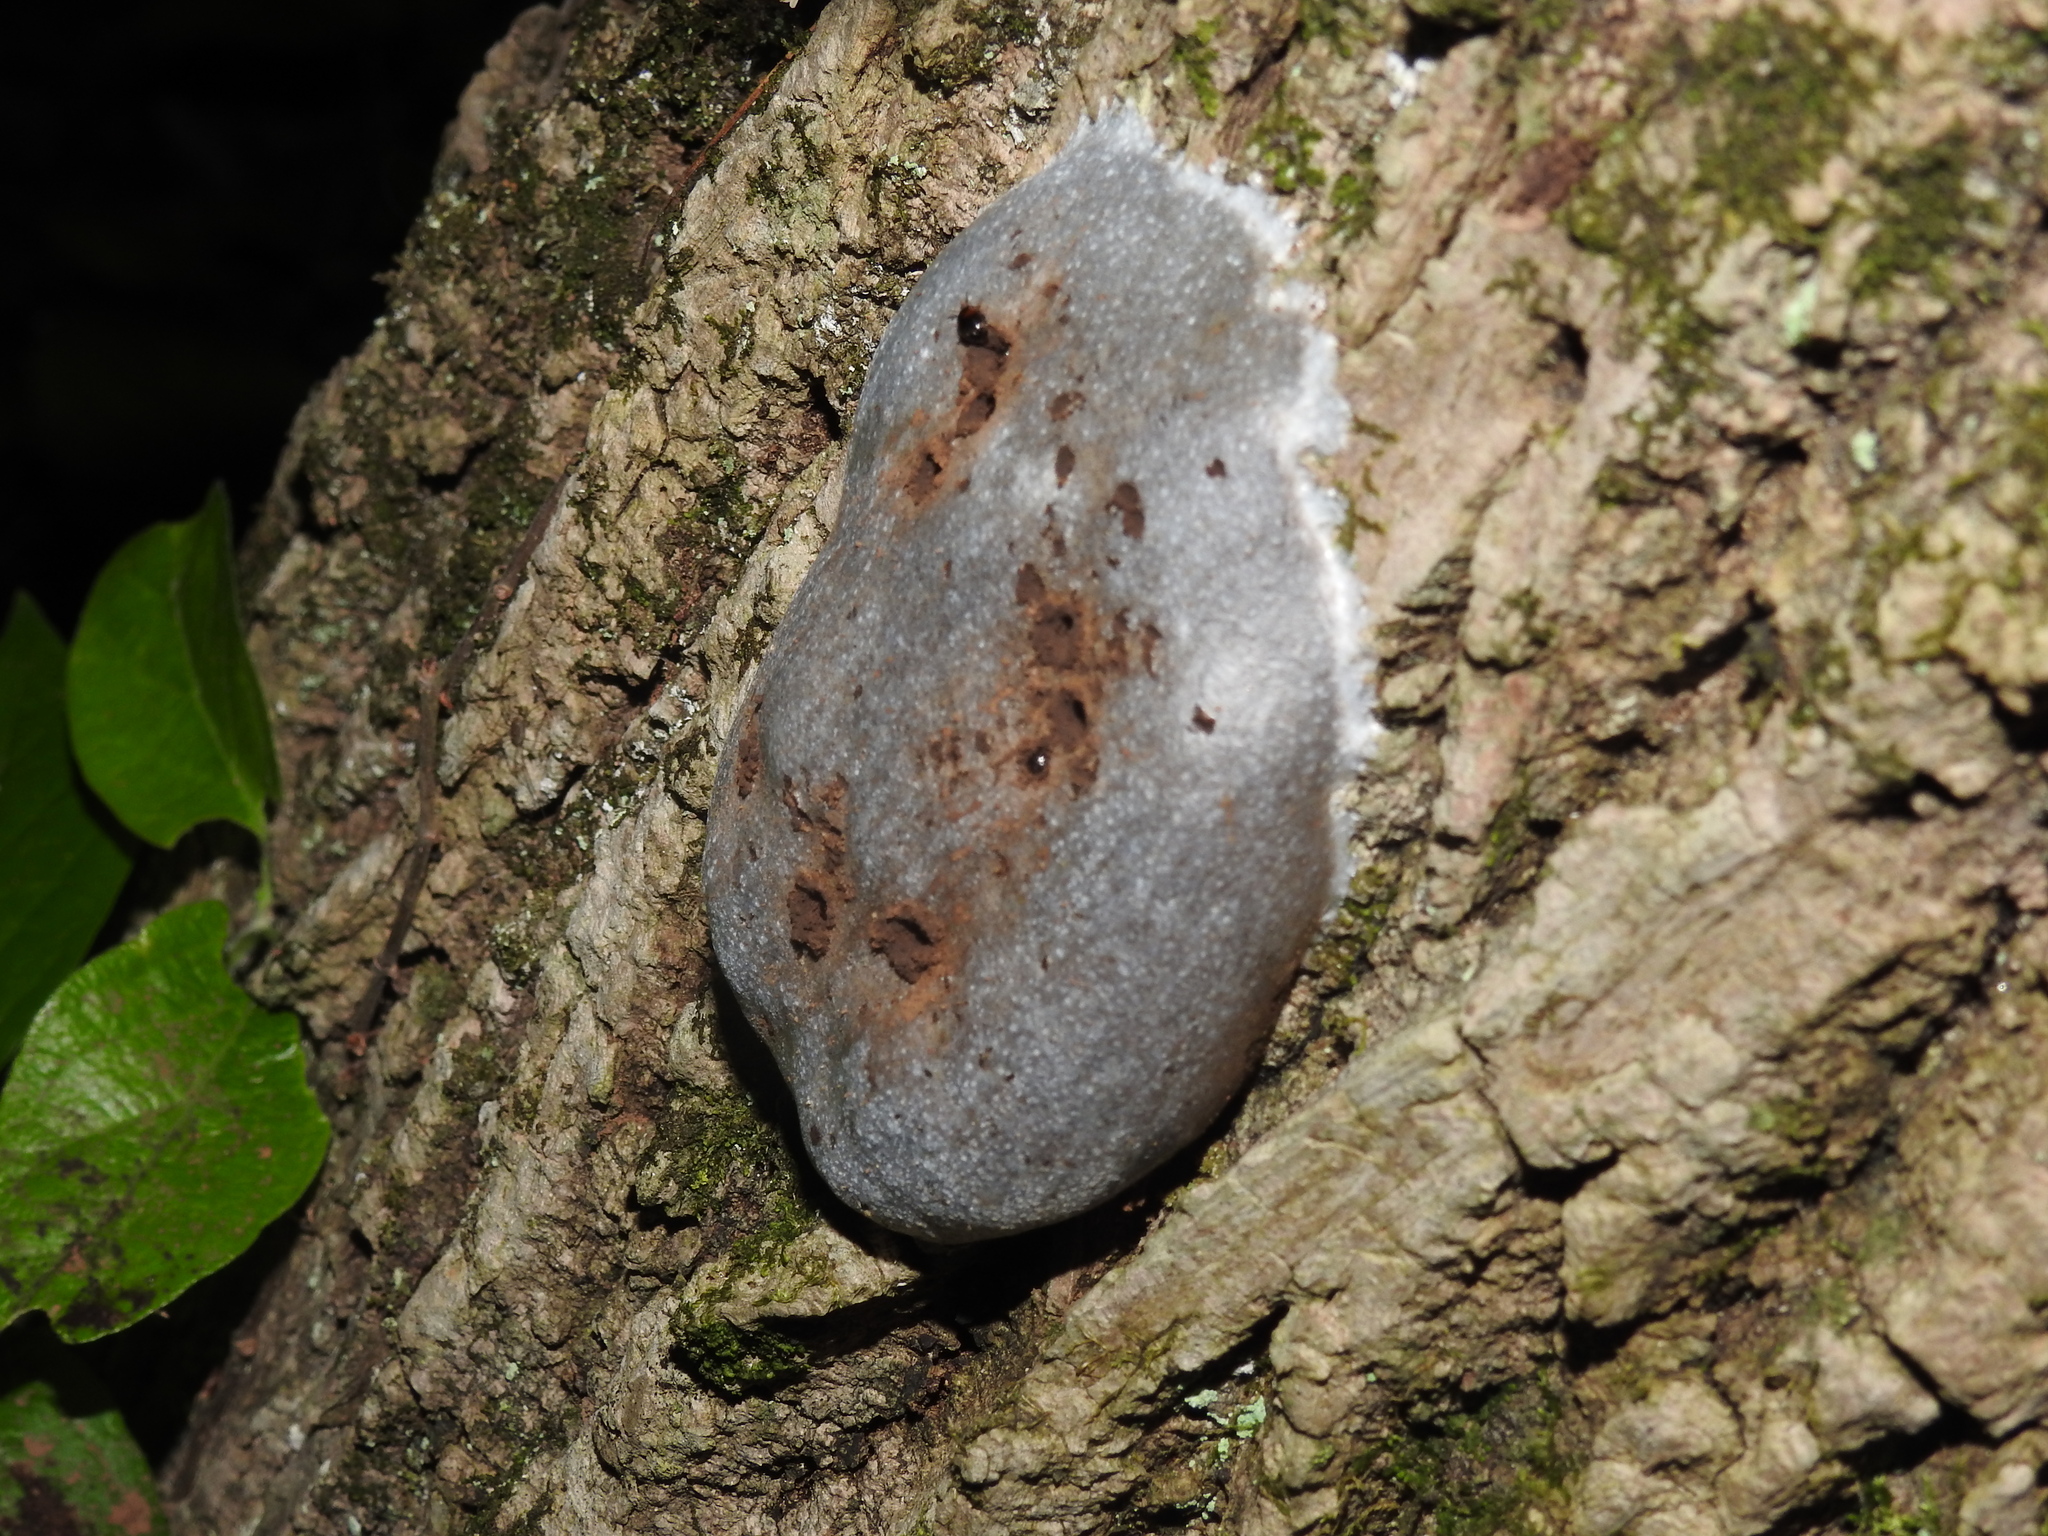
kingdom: Protozoa
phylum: Mycetozoa
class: Myxomycetes
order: Cribrariales
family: Tubiferaceae
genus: Reticularia
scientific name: Reticularia lycoperdon
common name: False puffball
